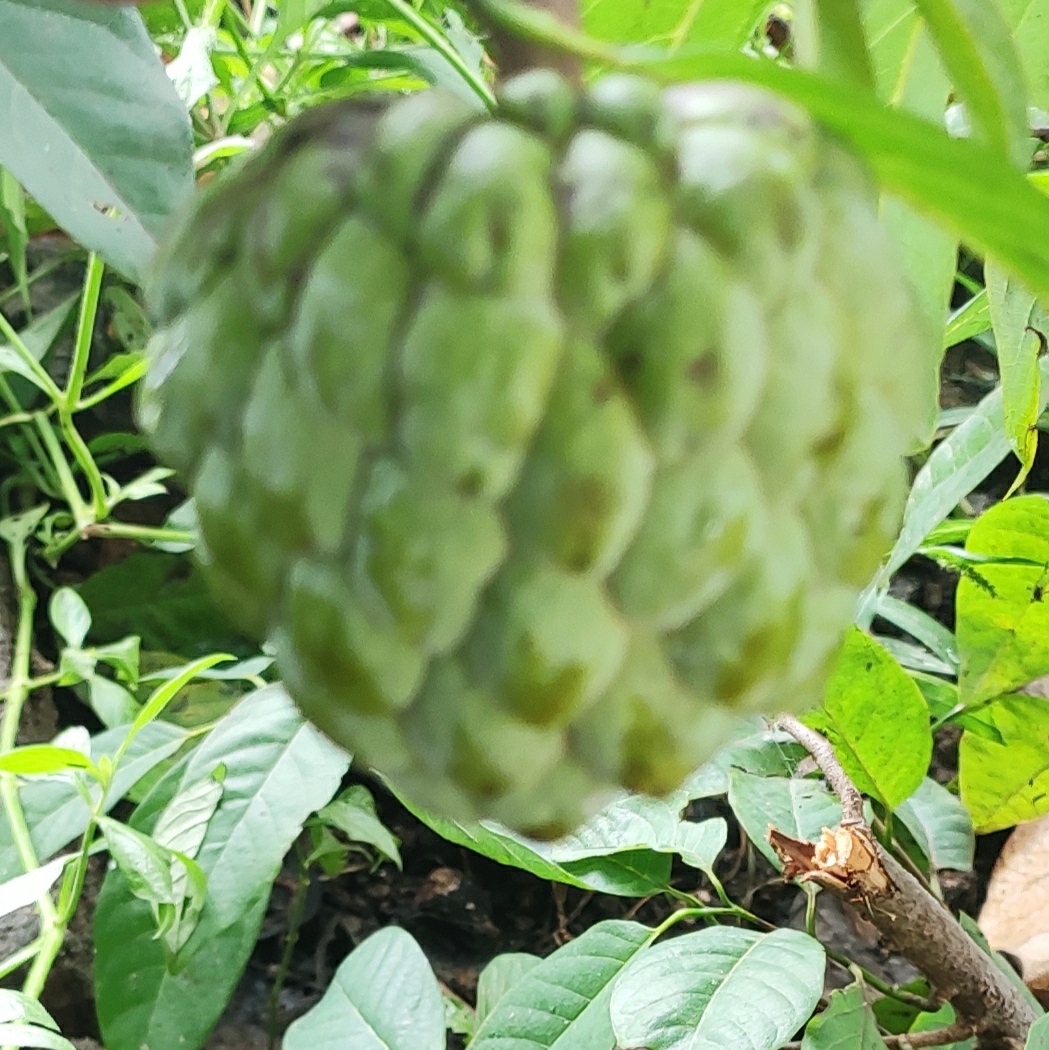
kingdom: Plantae
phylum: Tracheophyta
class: Magnoliopsida
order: Magnoliales
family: Annonaceae
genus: Annona
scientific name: Annona squamosa
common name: Custard-apple
